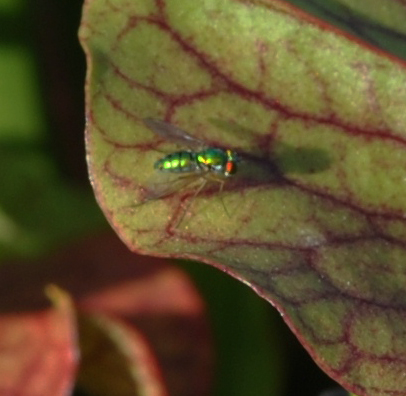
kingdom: Animalia
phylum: Arthropoda
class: Insecta
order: Diptera
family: Dolichopodidae
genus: Condylostylus
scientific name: Condylostylus
